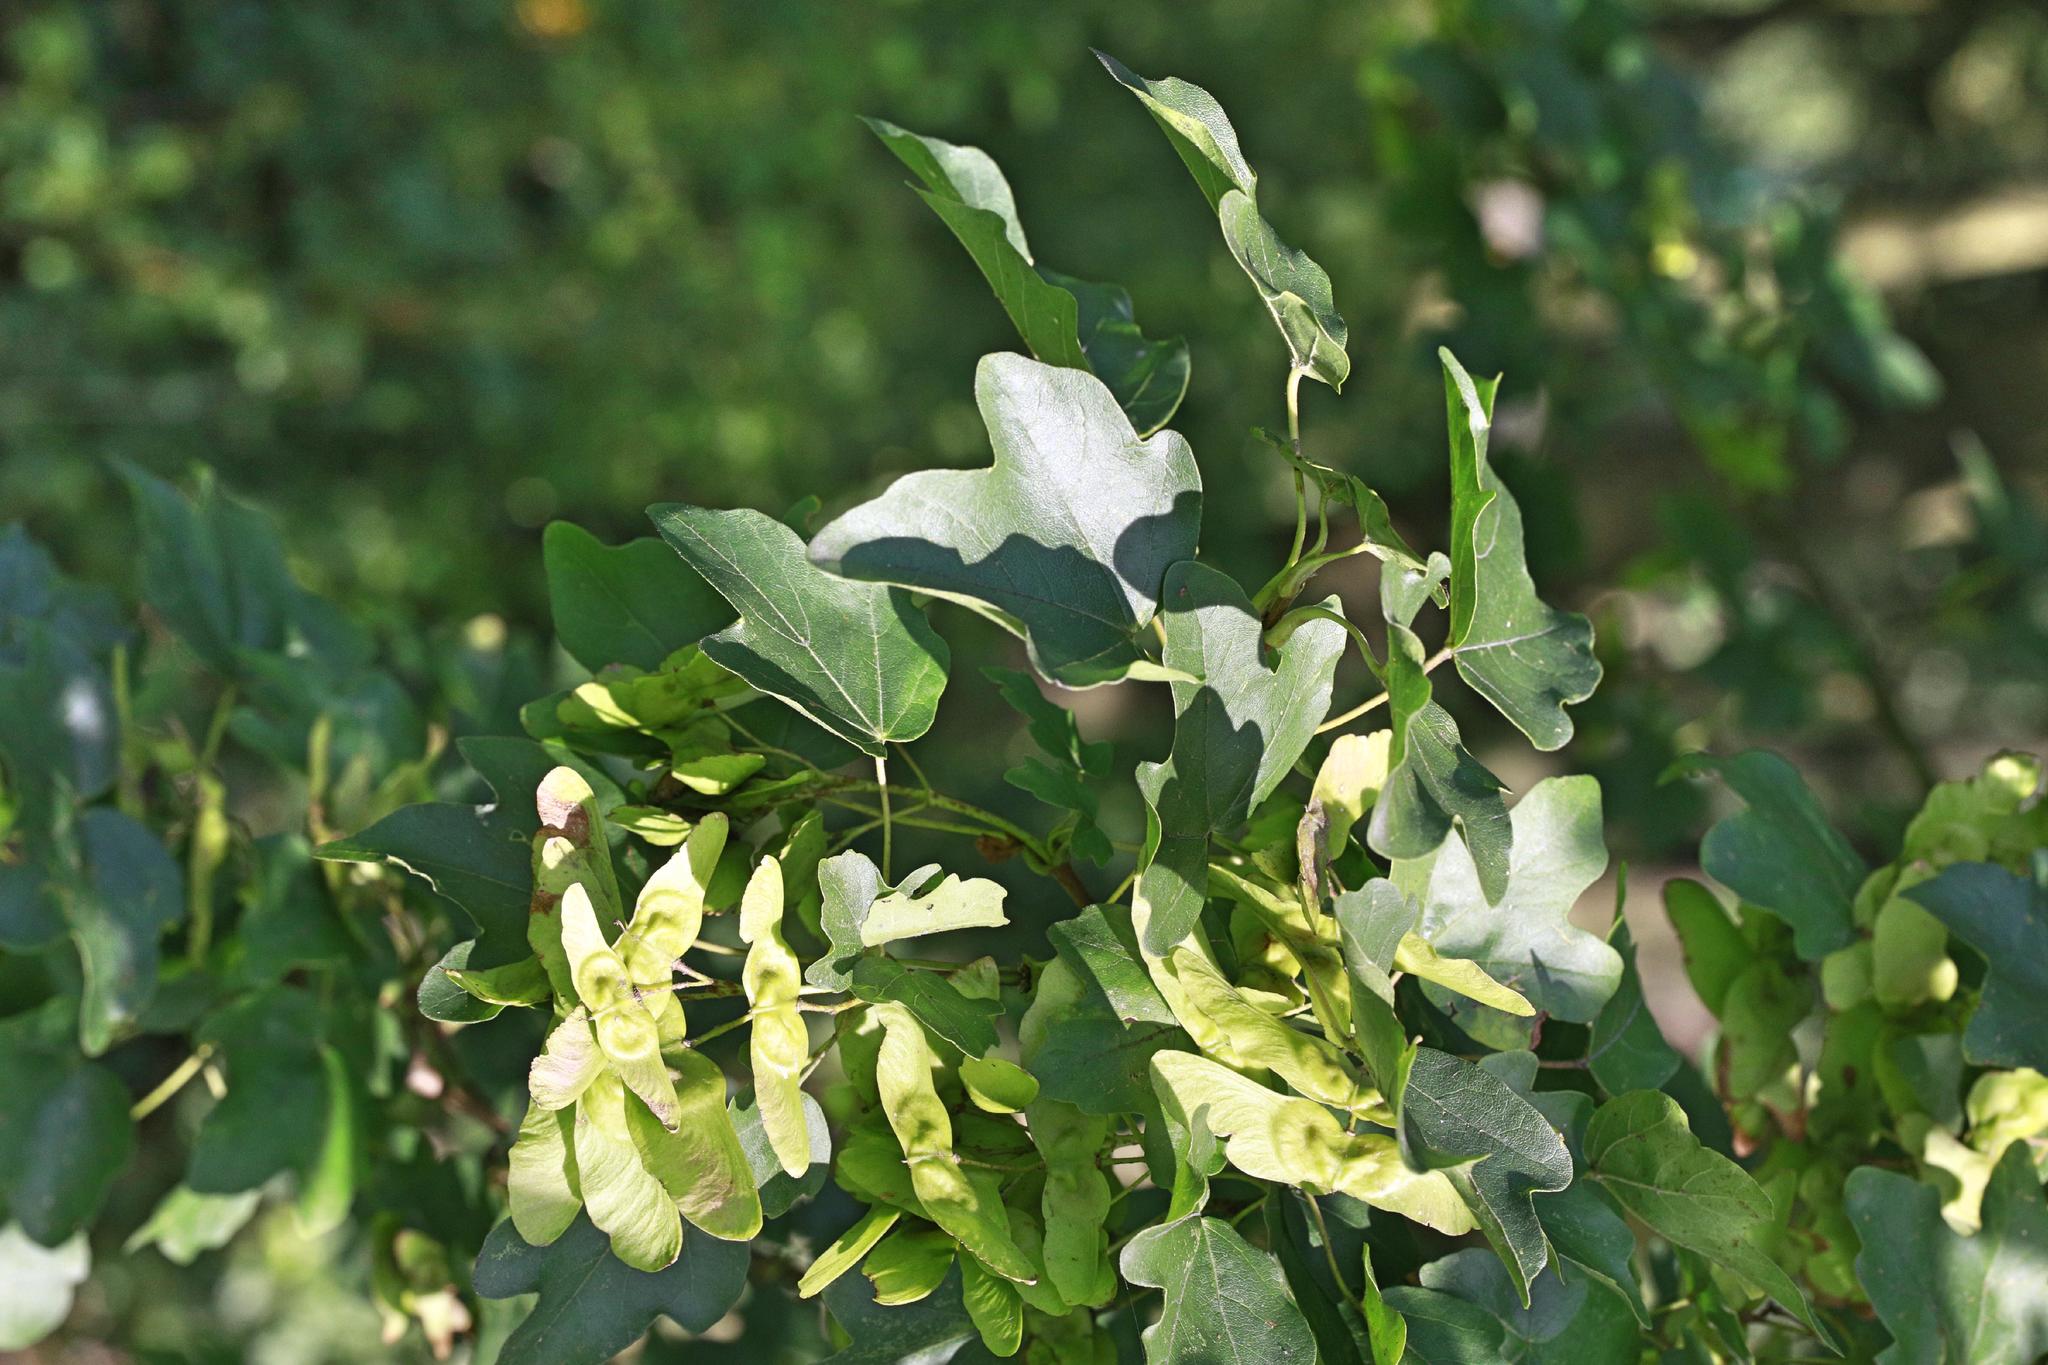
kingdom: Plantae
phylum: Tracheophyta
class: Magnoliopsida
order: Sapindales
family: Sapindaceae
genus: Acer
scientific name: Acer campestre
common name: Field maple
